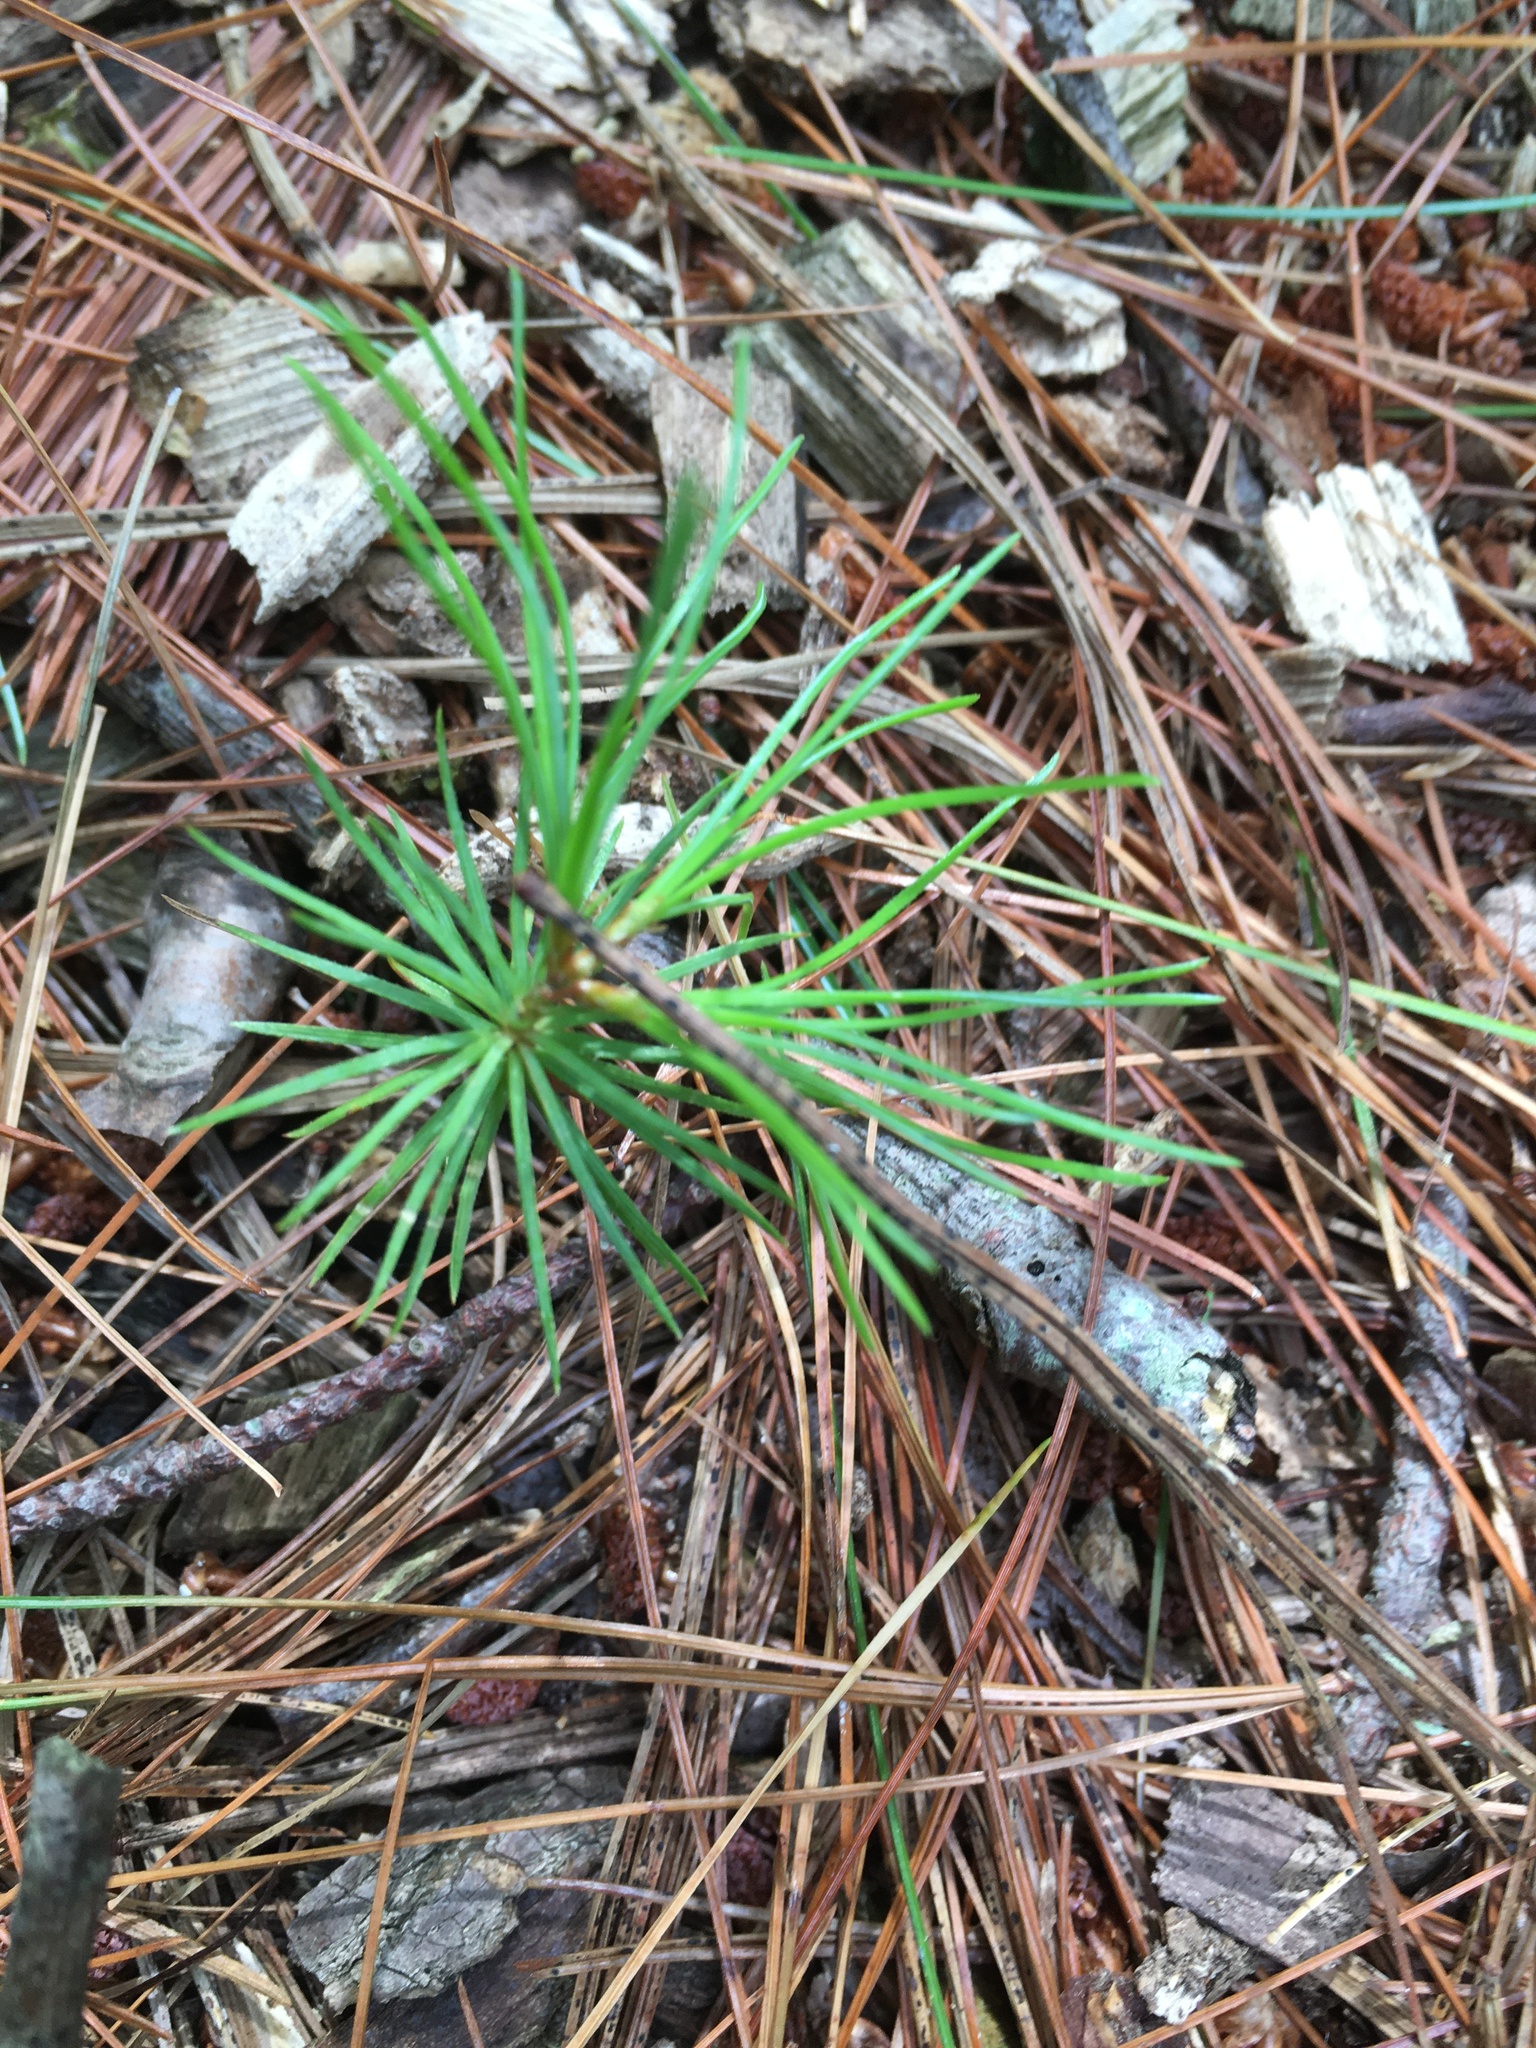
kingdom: Plantae
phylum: Tracheophyta
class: Pinopsida
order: Pinales
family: Pinaceae
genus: Pinus
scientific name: Pinus strobus
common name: Weymouth pine
